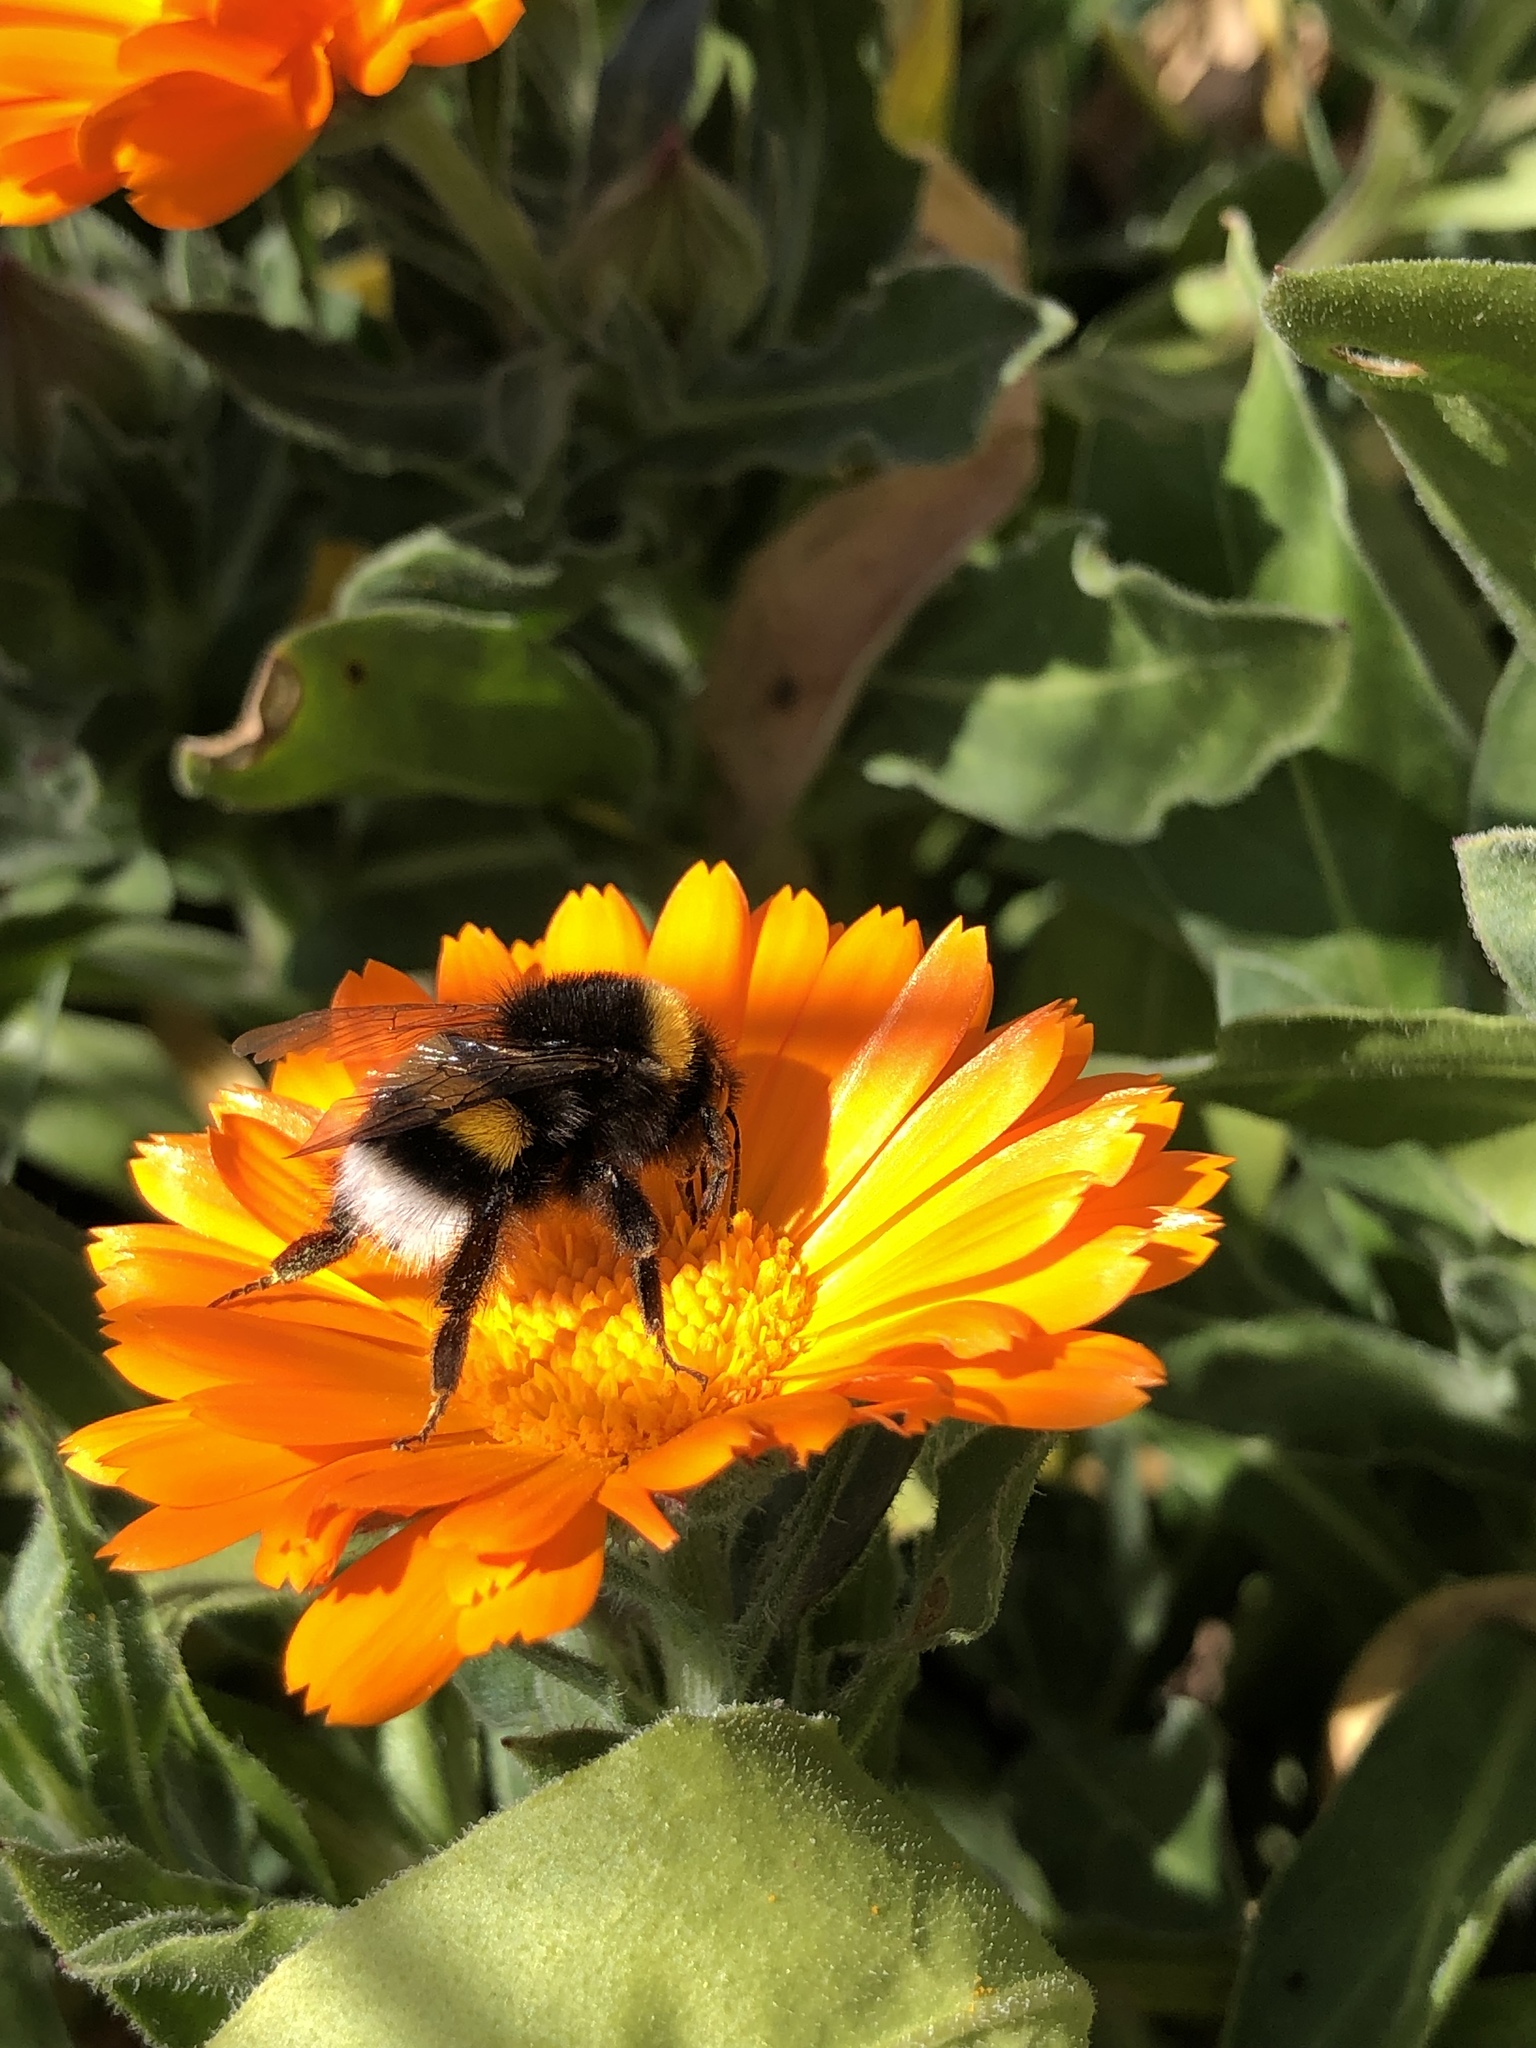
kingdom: Animalia
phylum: Arthropoda
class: Insecta
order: Hymenoptera
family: Apidae
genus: Bombus
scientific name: Bombus terrestris
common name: Buff-tailed bumblebee
